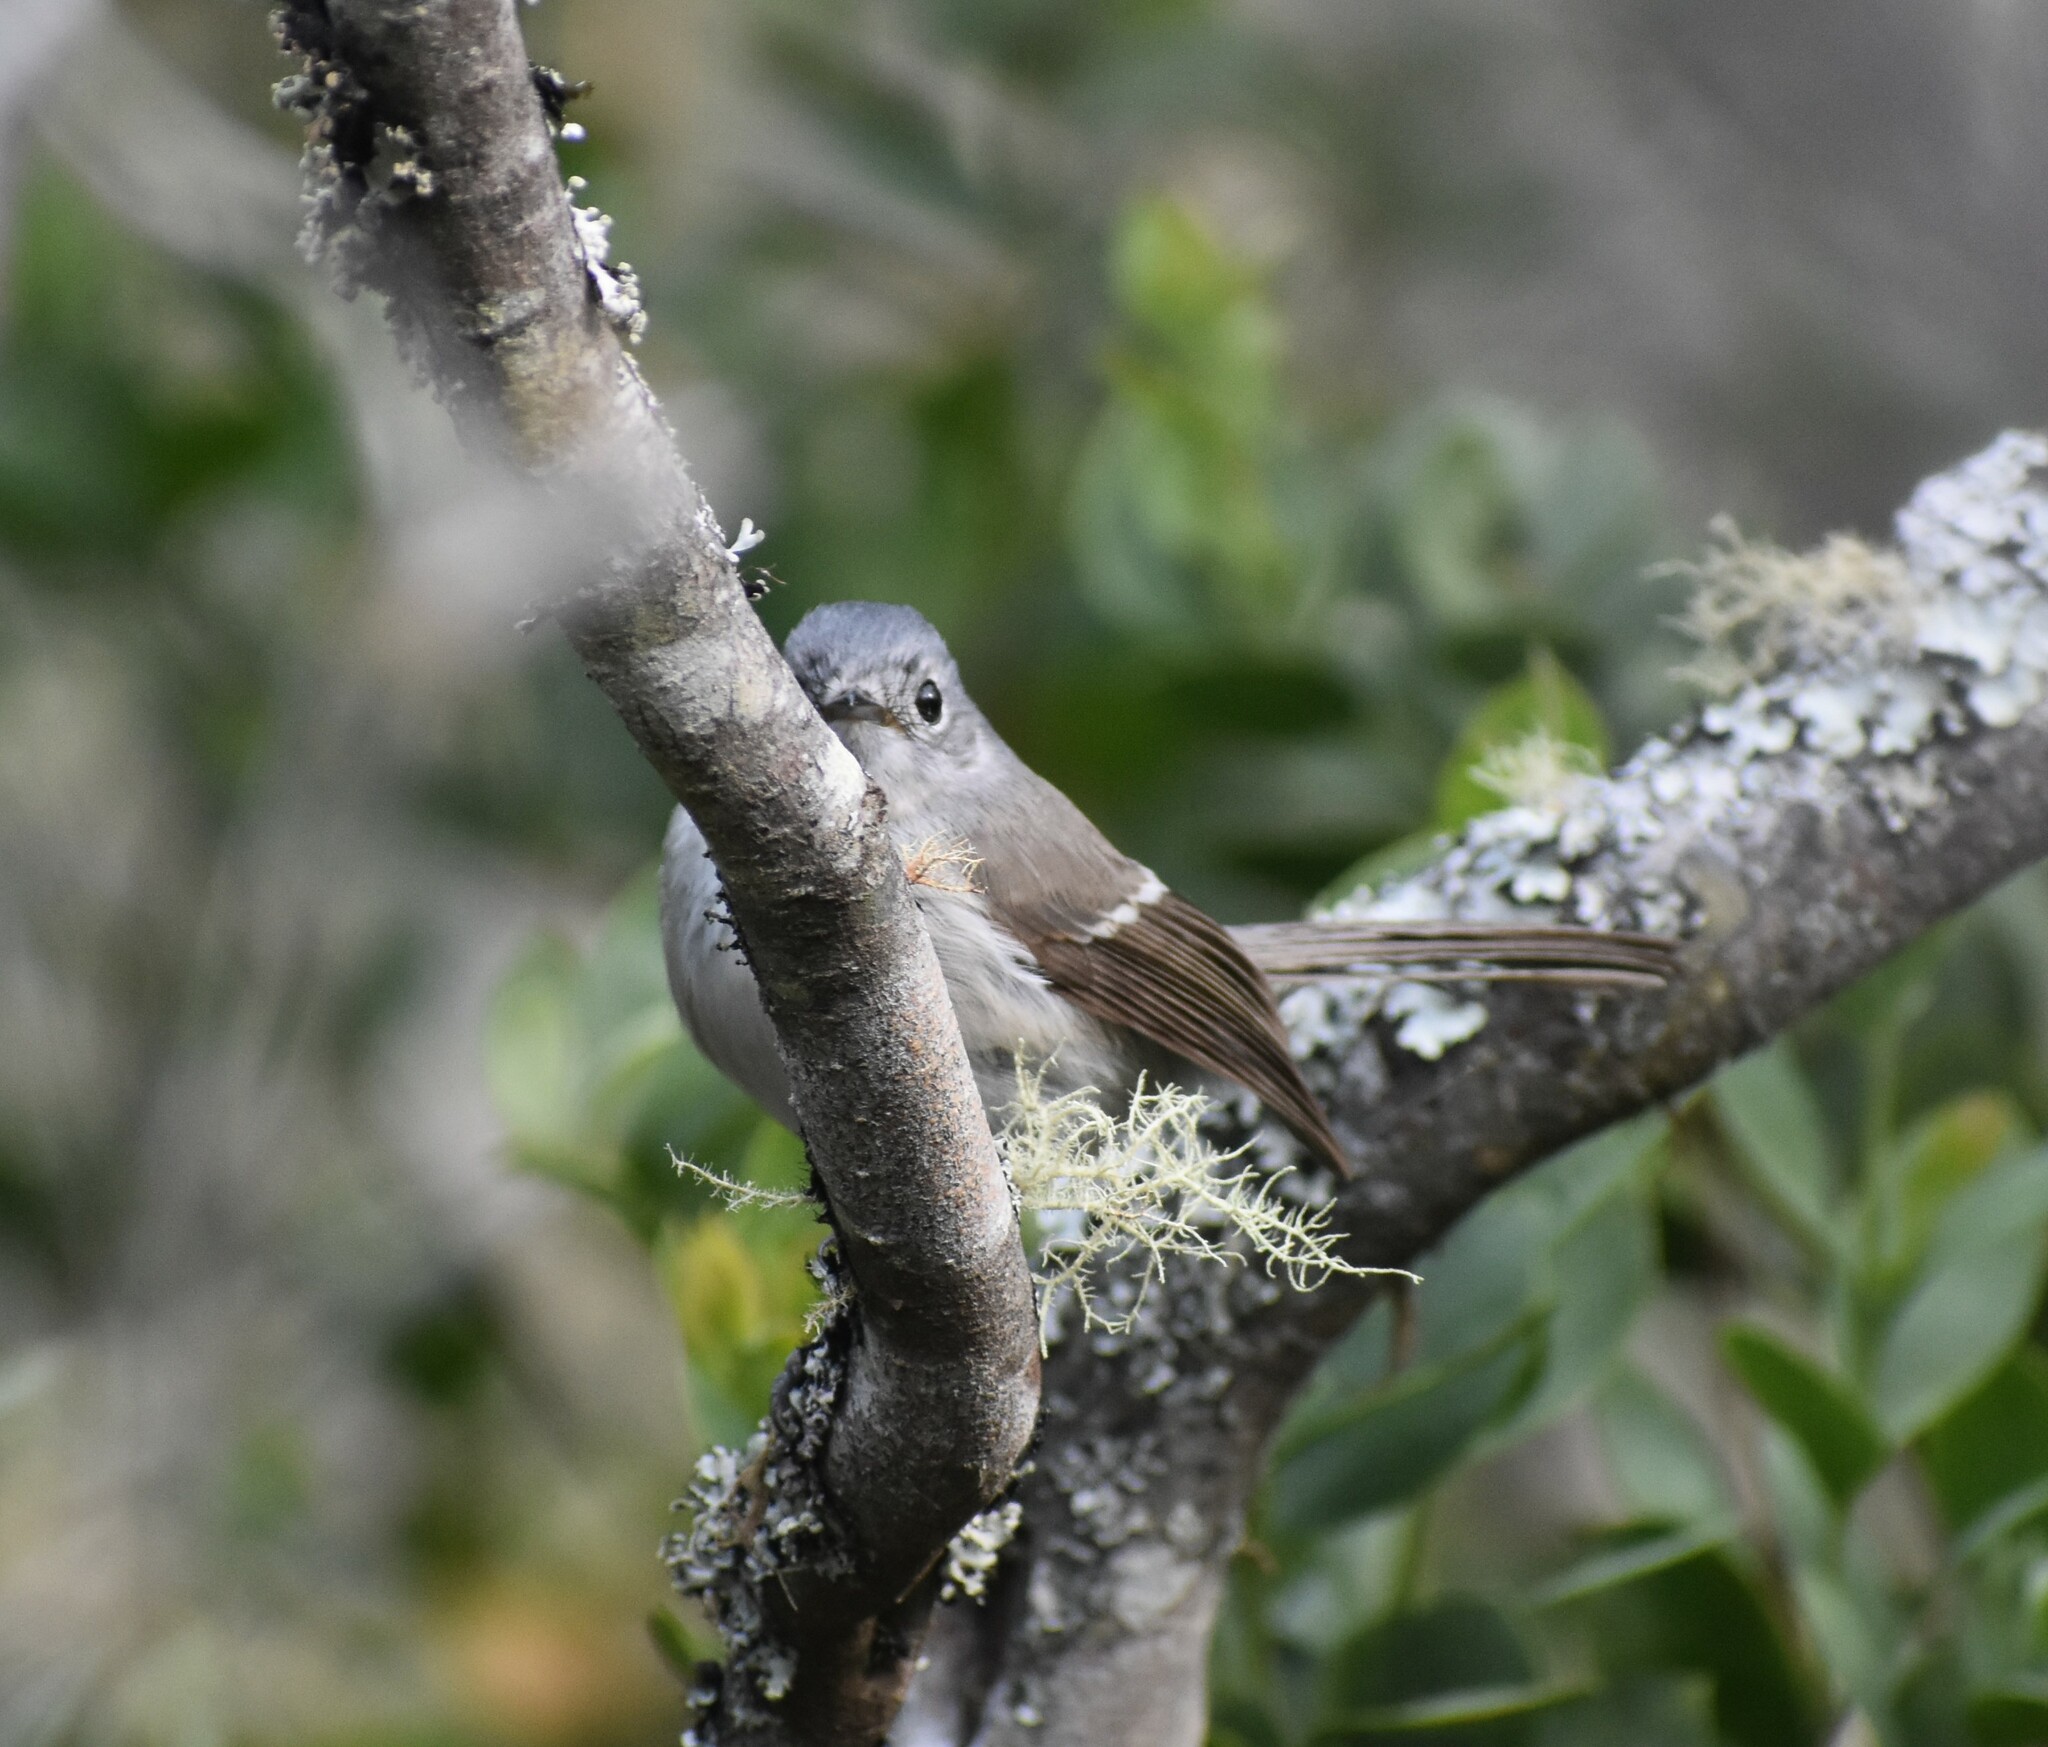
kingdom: Animalia
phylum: Chordata
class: Aves
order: Passeriformes
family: Monarchidae
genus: Trochocercus
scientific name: Trochocercus cyanomelas
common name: Blue-mantled crested flycatcher
